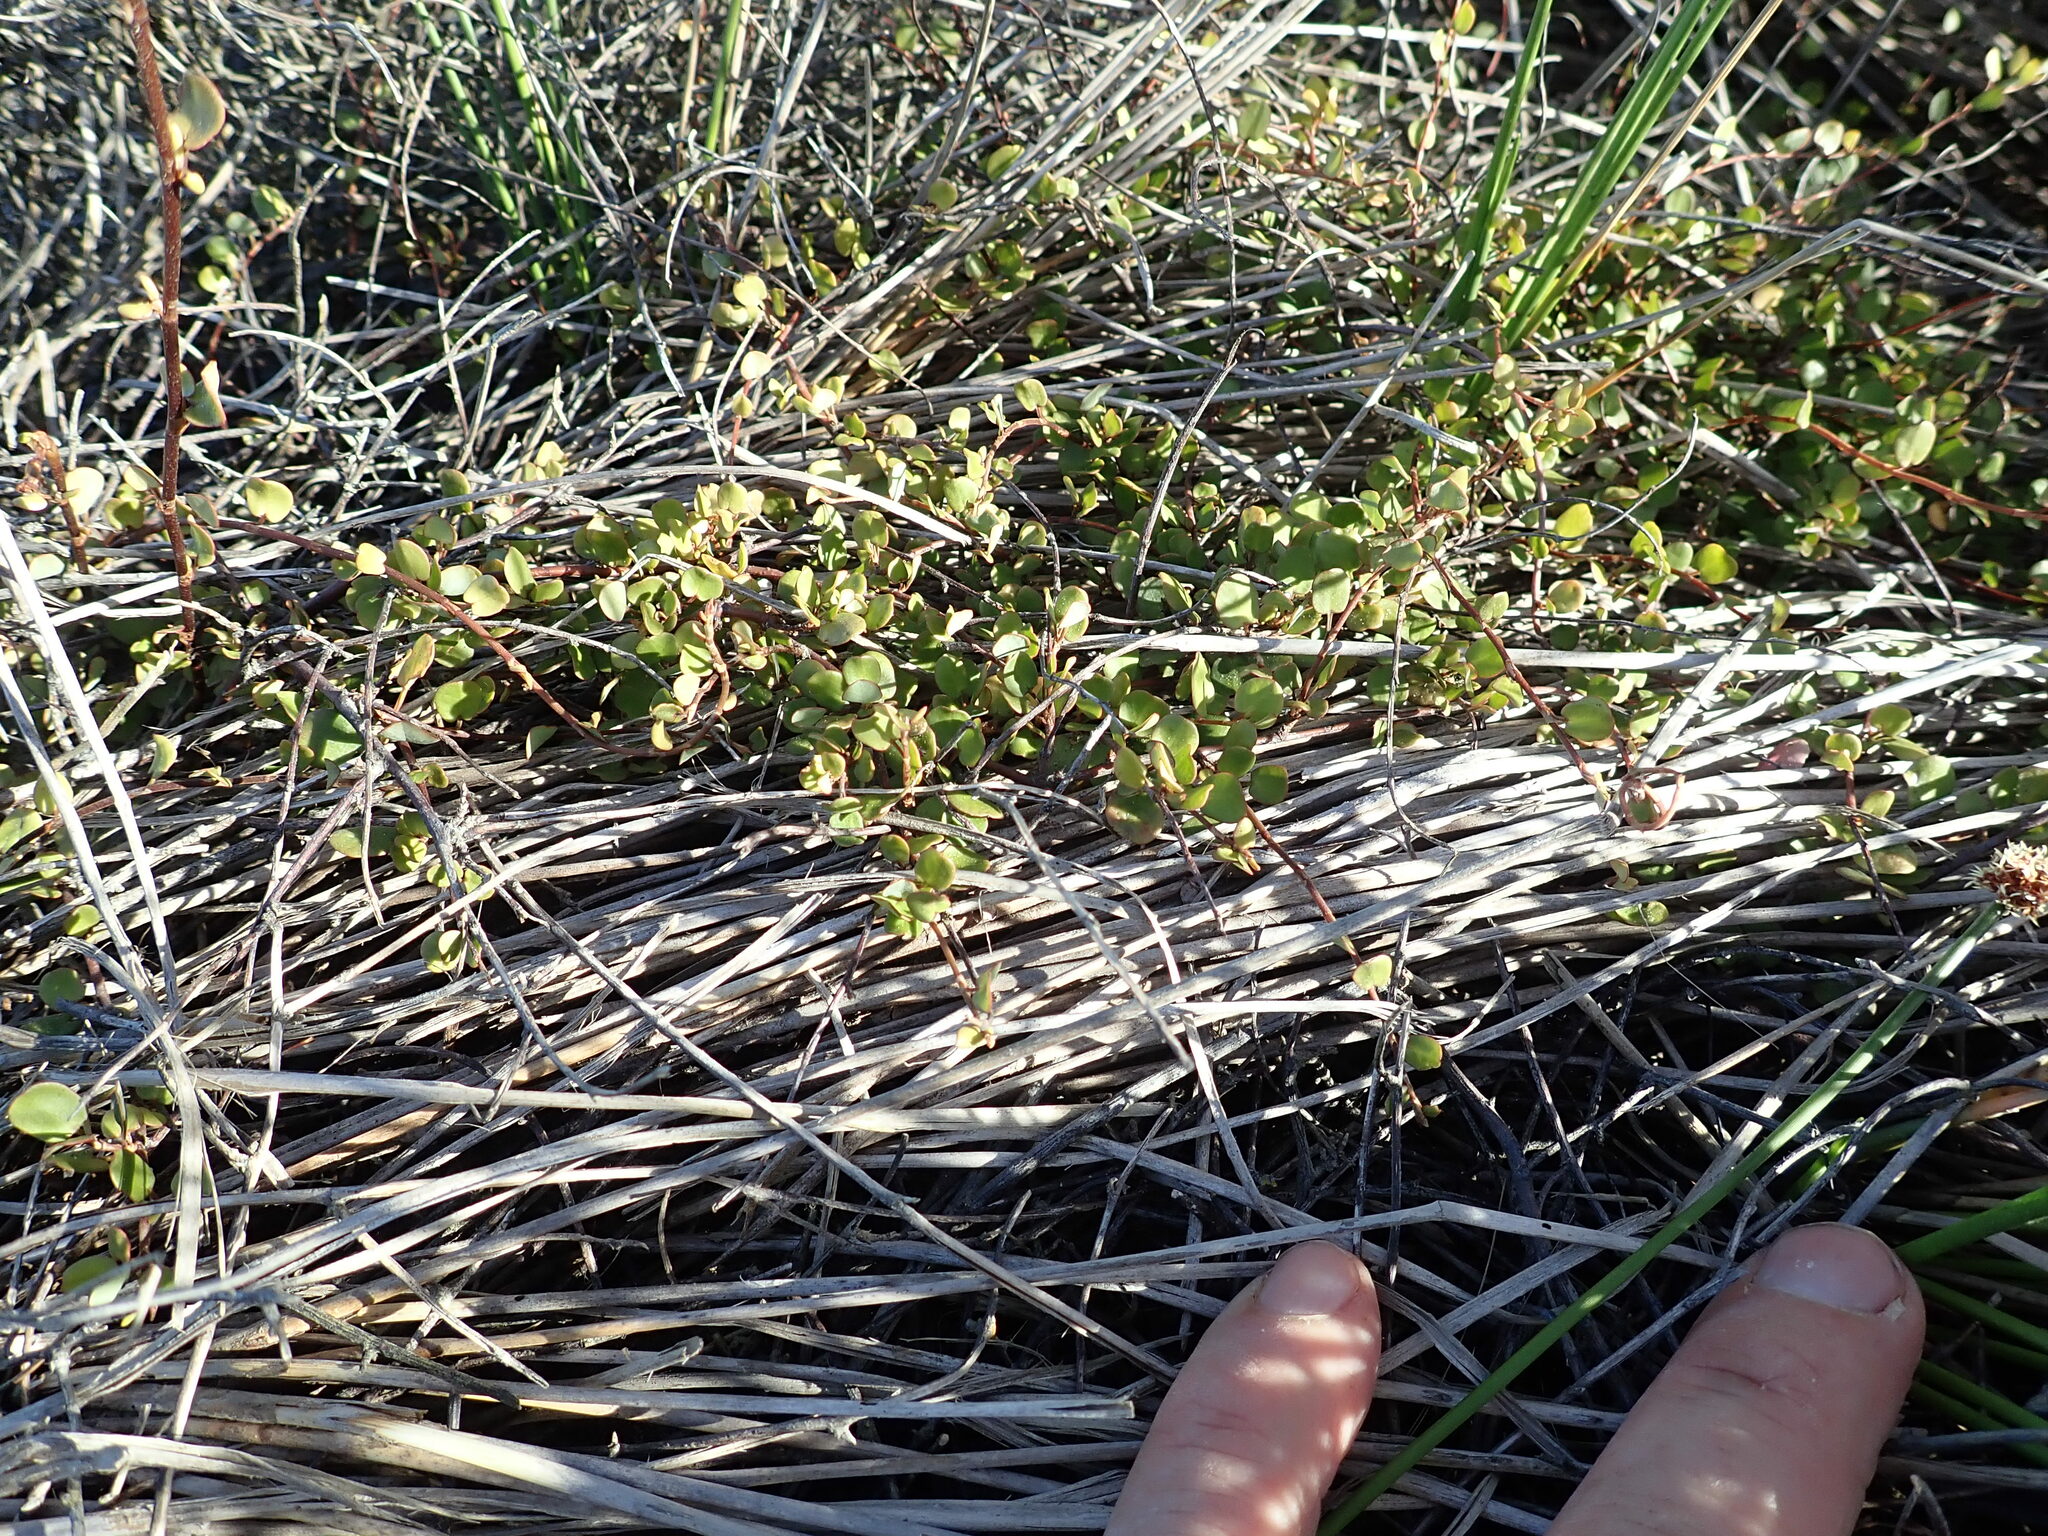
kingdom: Plantae
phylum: Tracheophyta
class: Magnoliopsida
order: Caryophyllales
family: Polygonaceae
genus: Muehlenbeckia
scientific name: Muehlenbeckia complexa
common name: Wireplant
